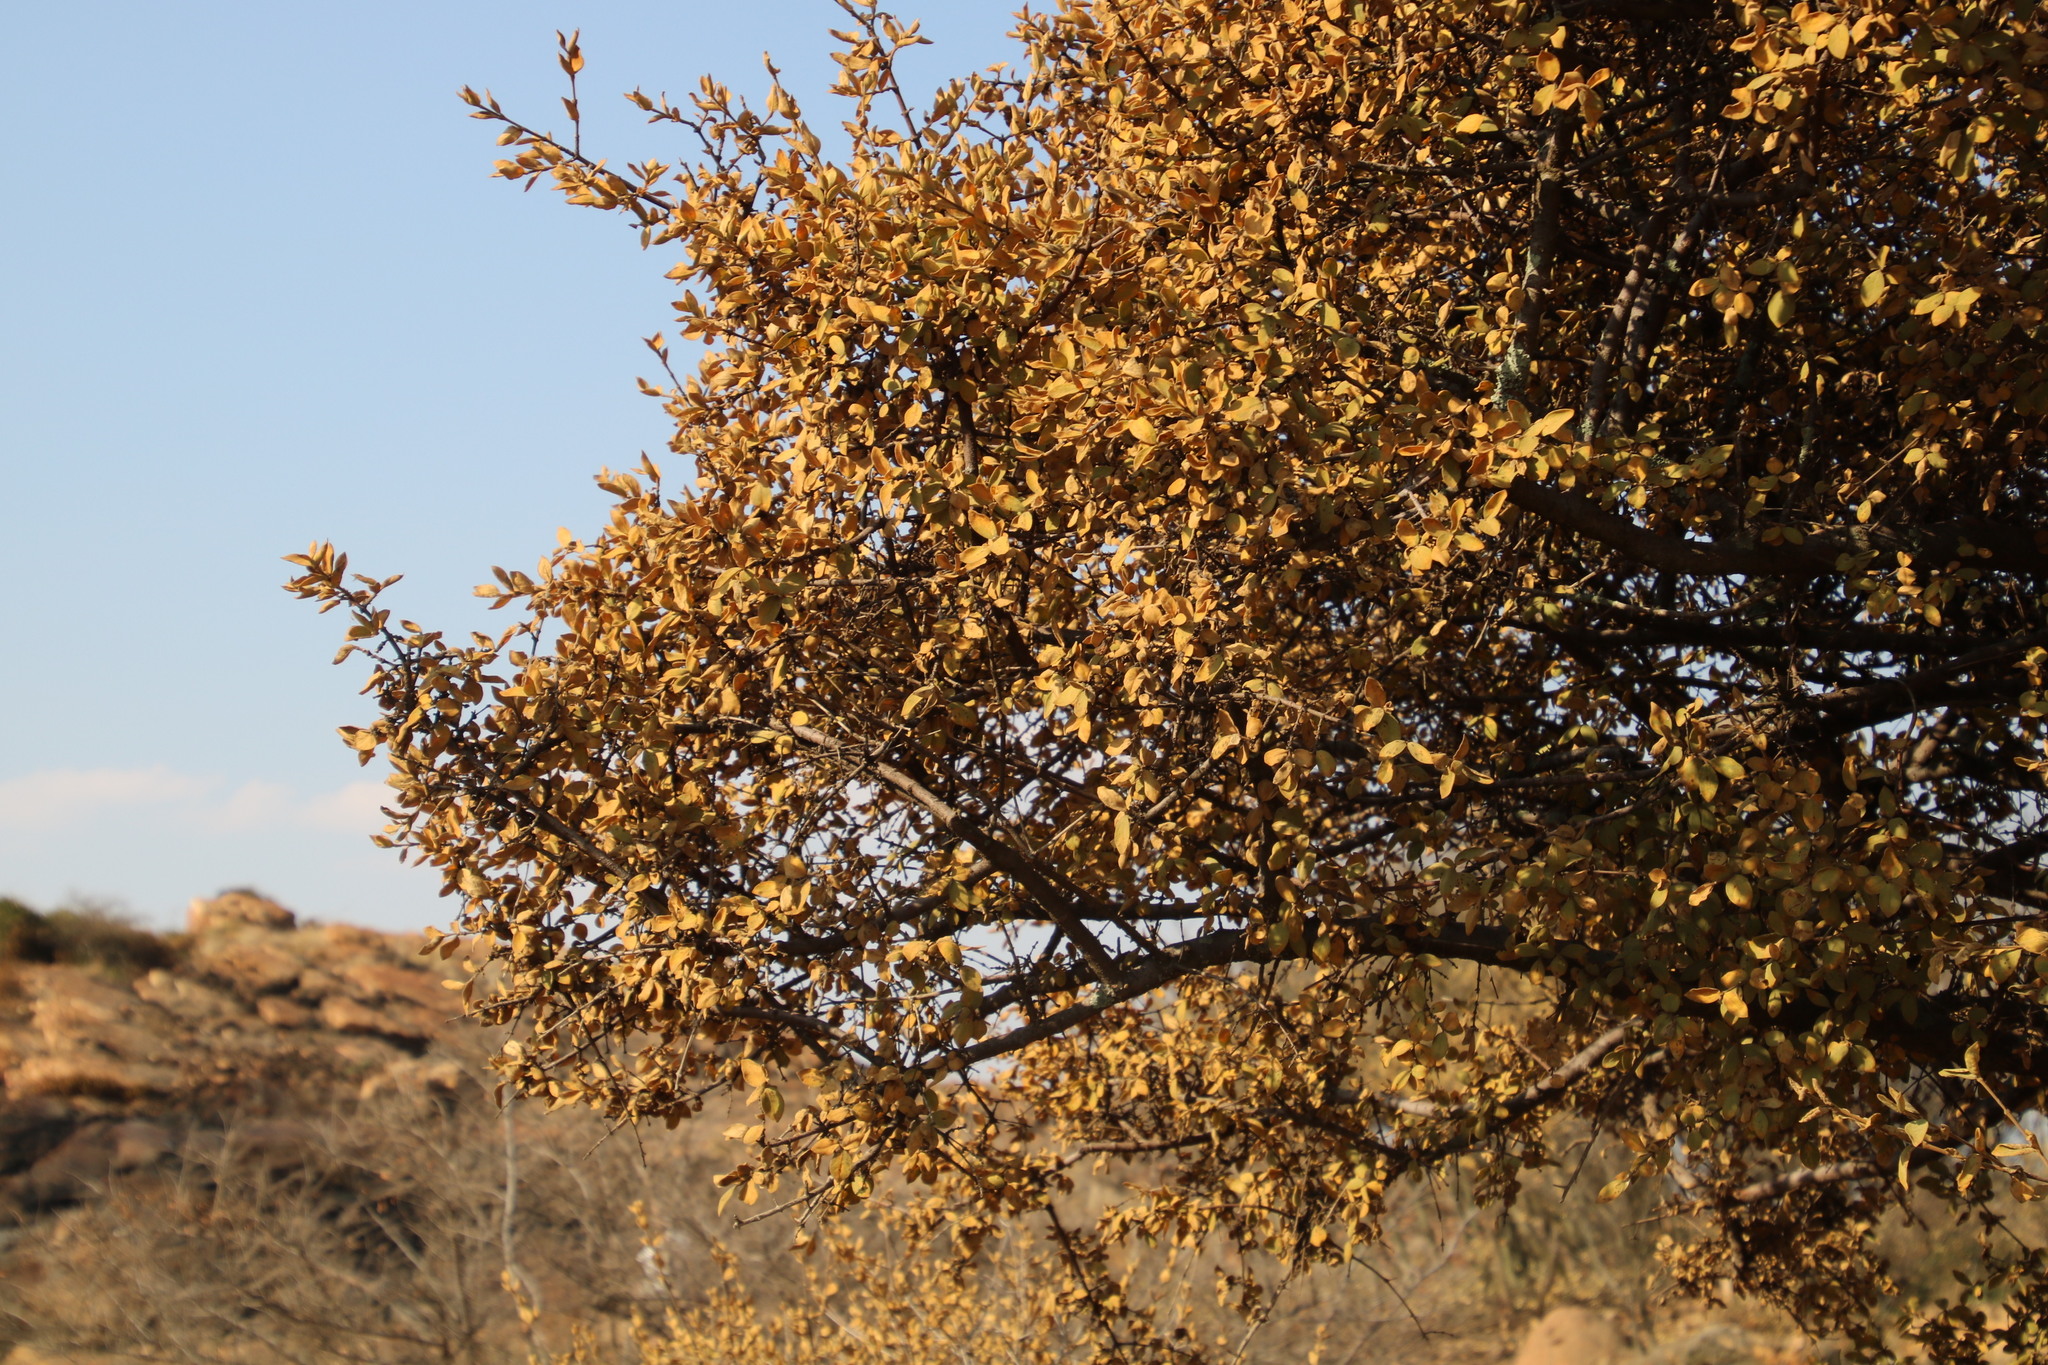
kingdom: Plantae
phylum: Tracheophyta
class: Magnoliopsida
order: Gentianales
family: Rubiaceae
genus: Vangueria
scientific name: Vangueria parvifolia
